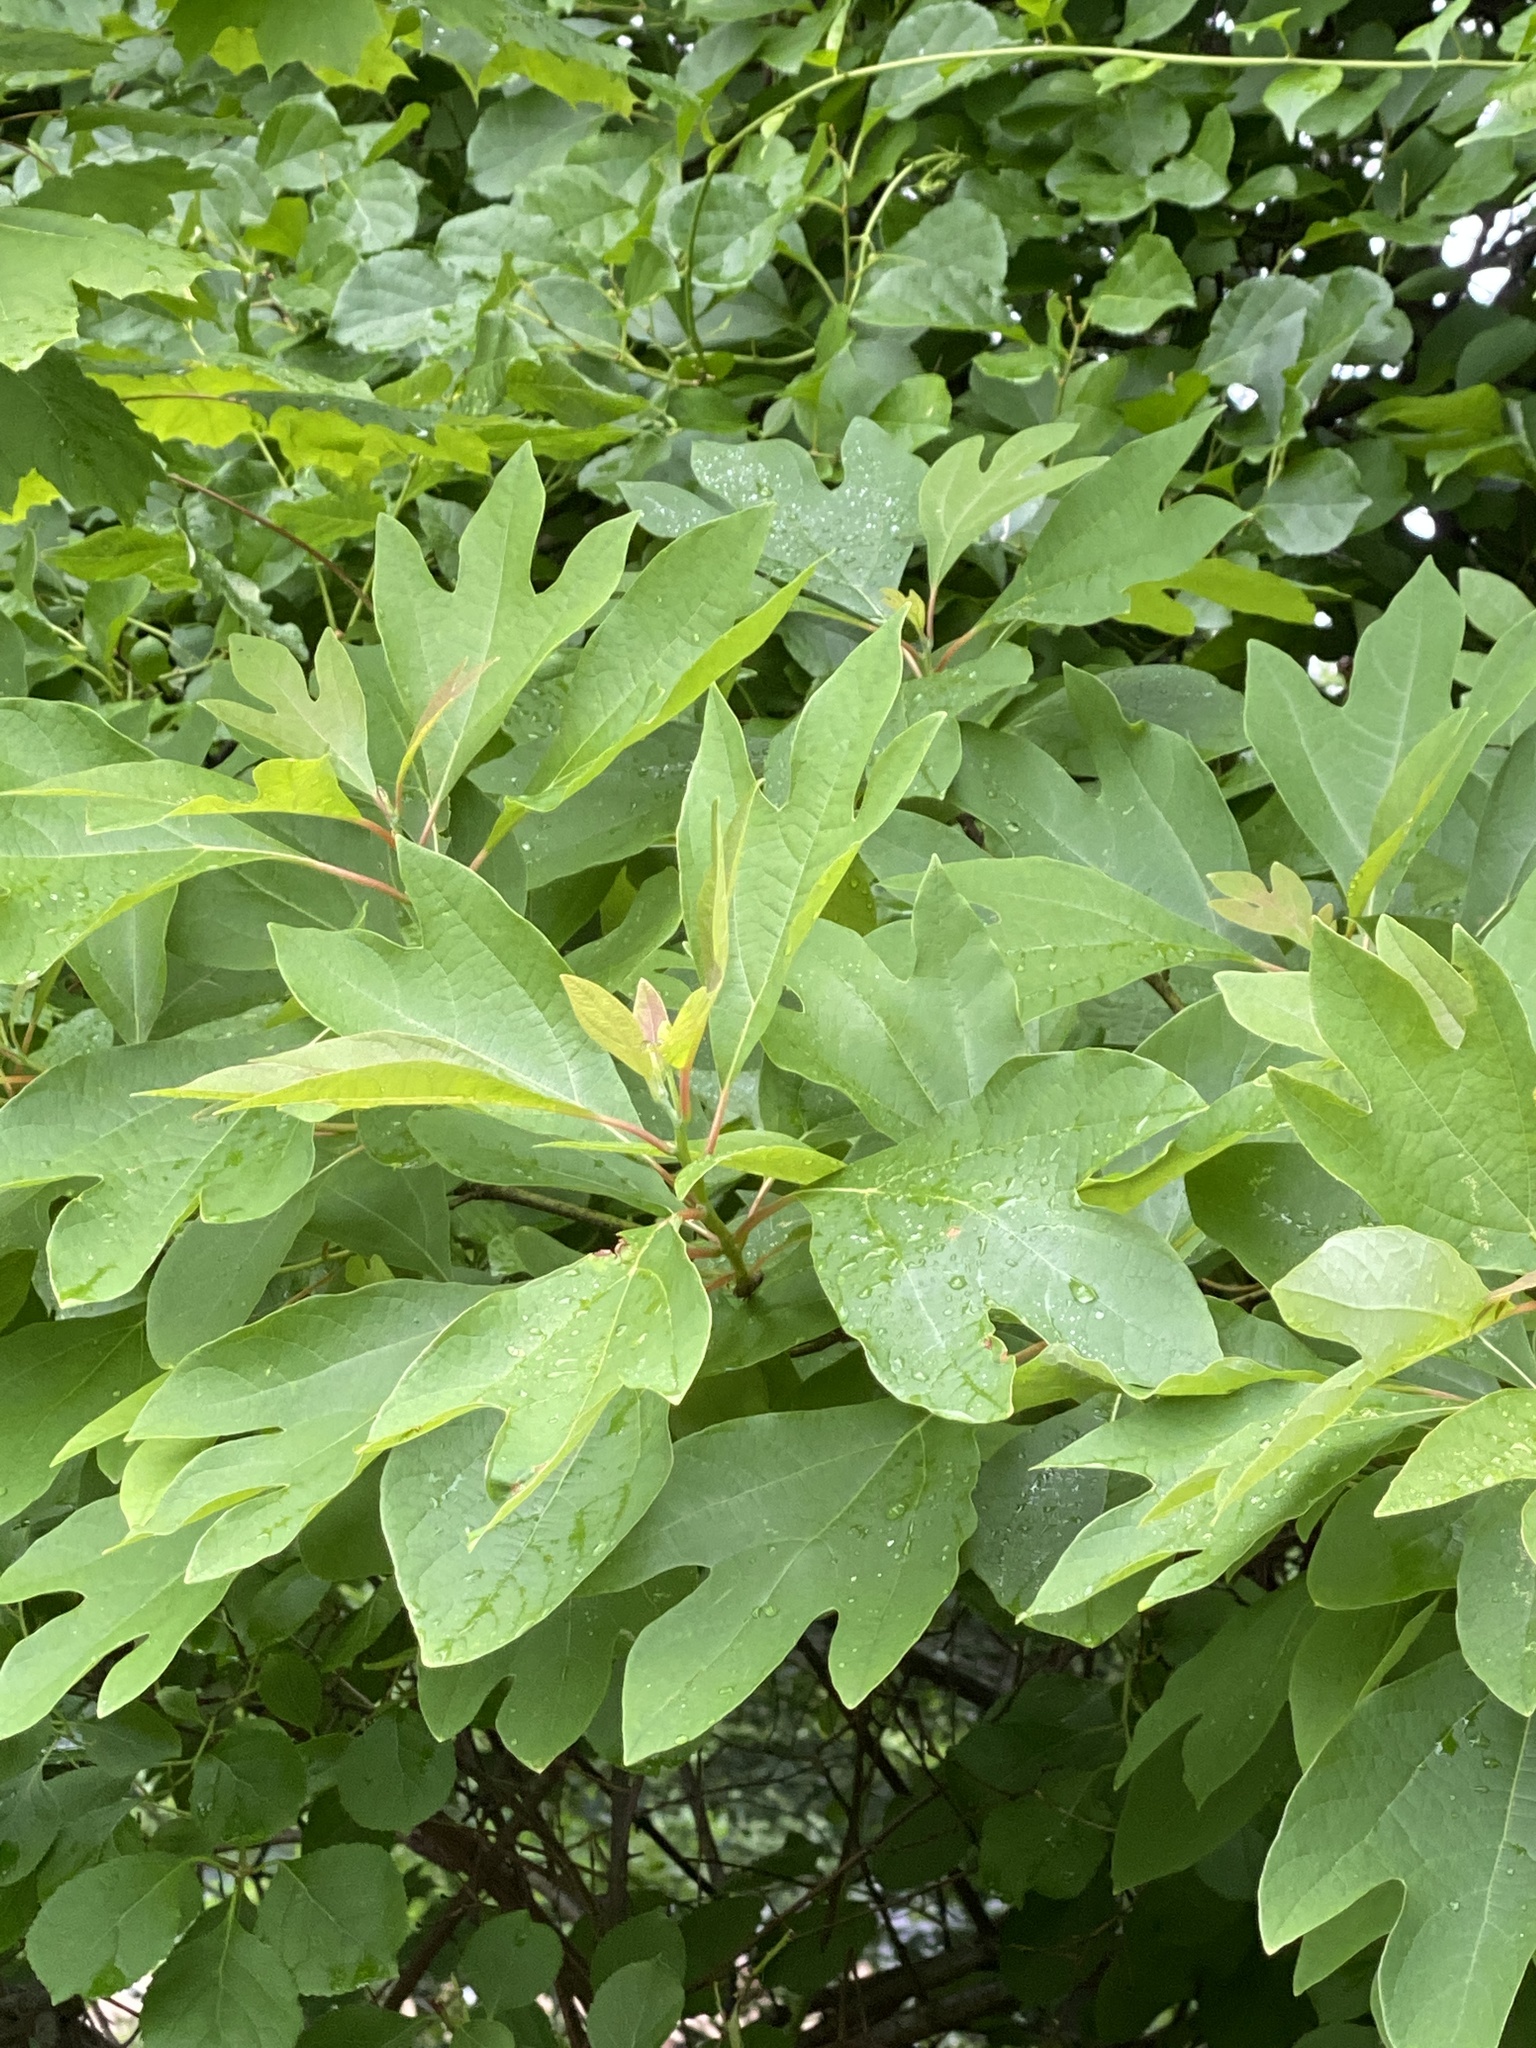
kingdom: Plantae
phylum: Tracheophyta
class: Magnoliopsida
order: Laurales
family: Lauraceae
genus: Sassafras
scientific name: Sassafras albidum
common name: Sassafras
